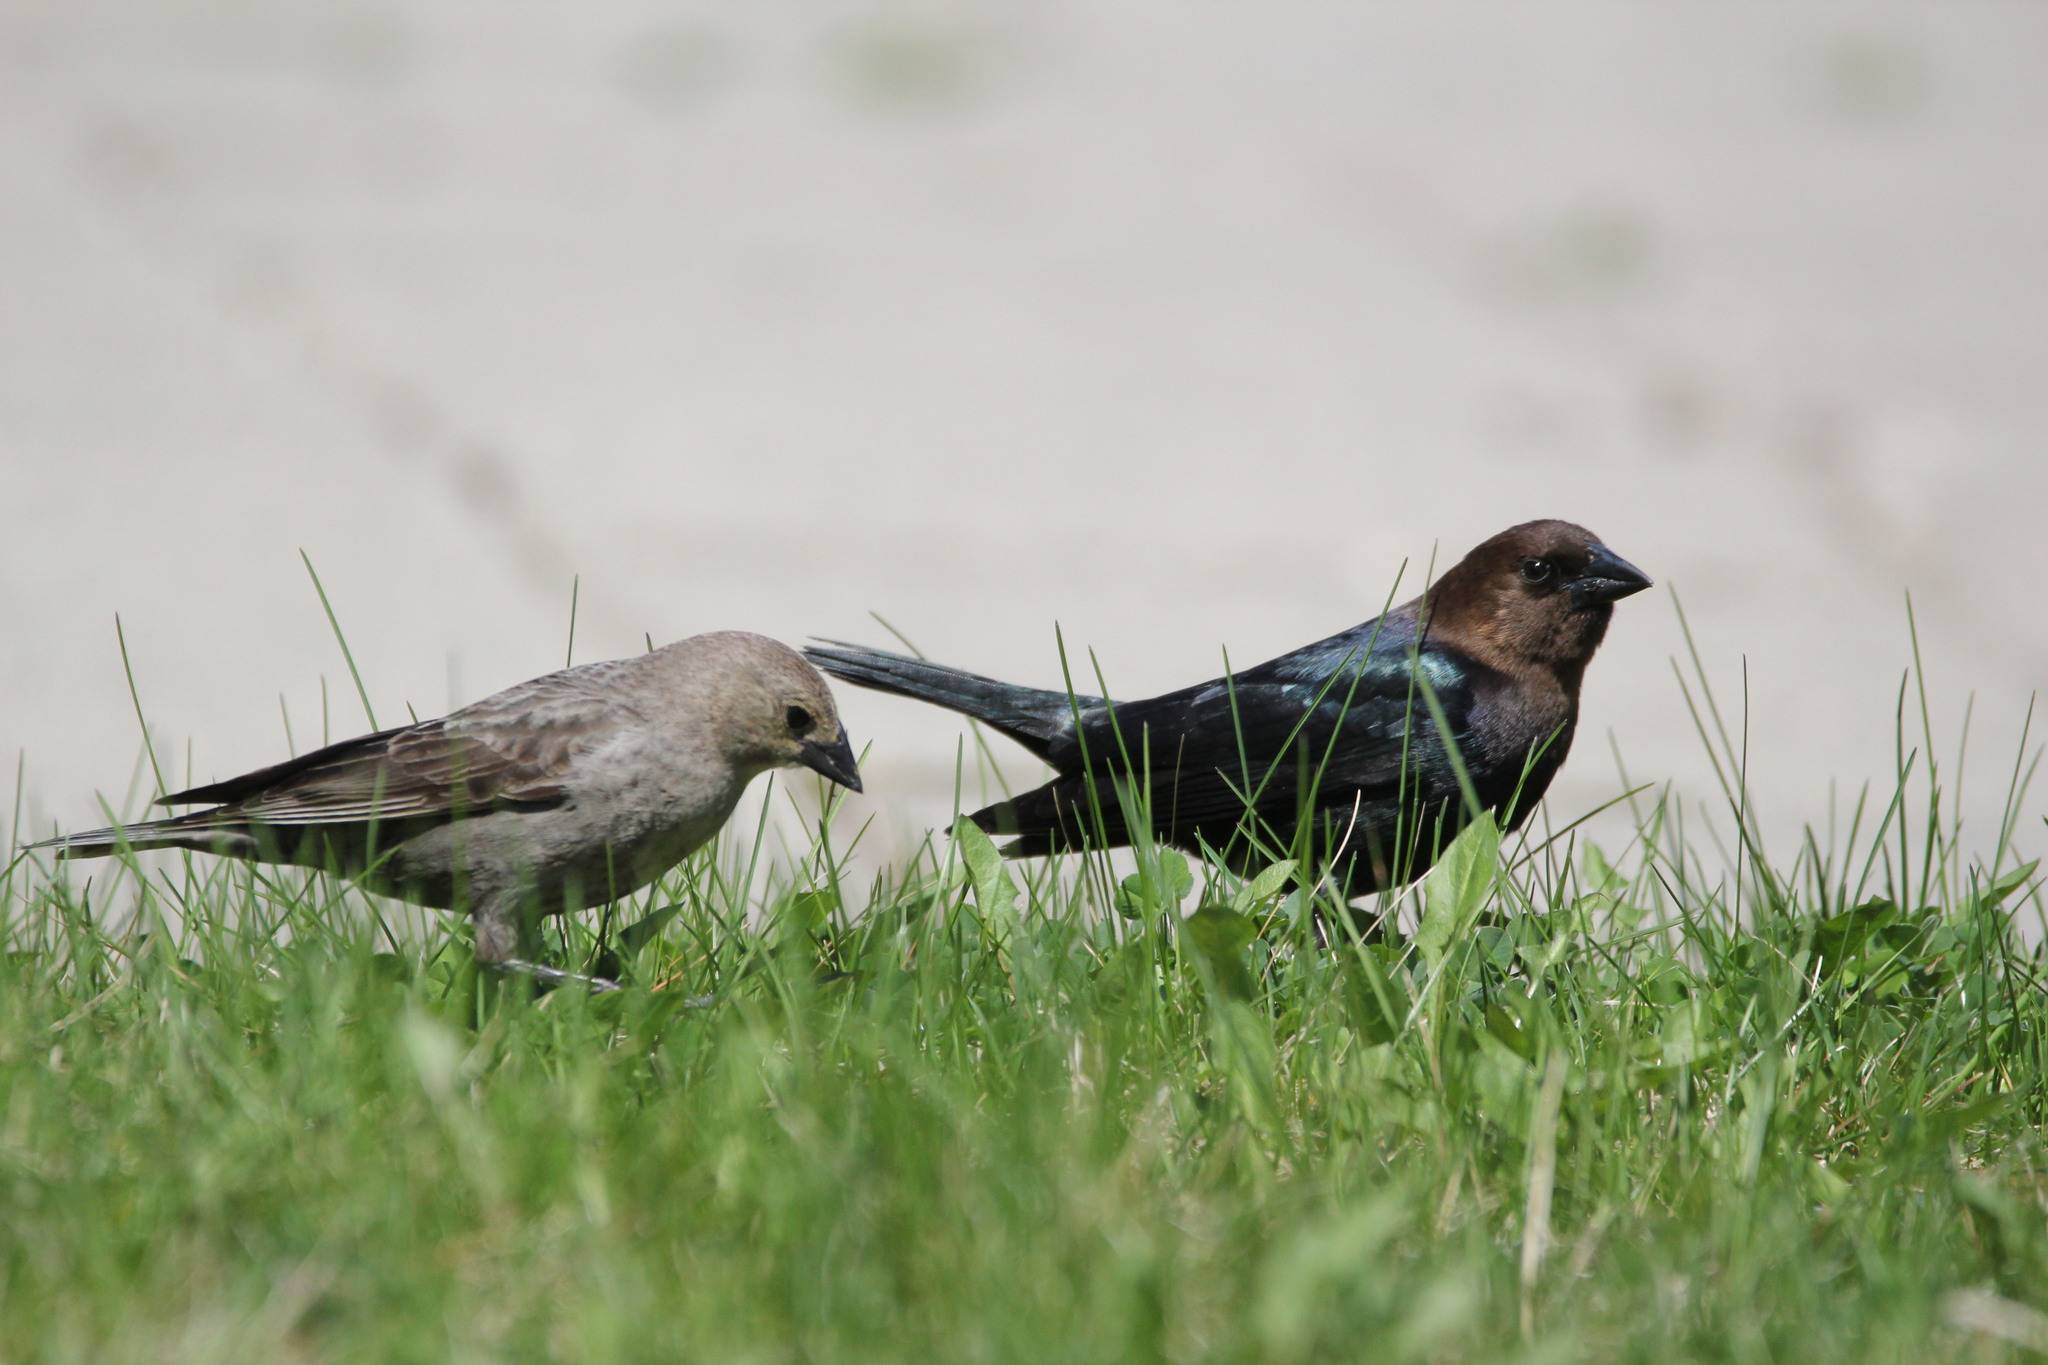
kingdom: Animalia
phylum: Chordata
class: Aves
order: Passeriformes
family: Icteridae
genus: Molothrus
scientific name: Molothrus ater
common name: Brown-headed cowbird
